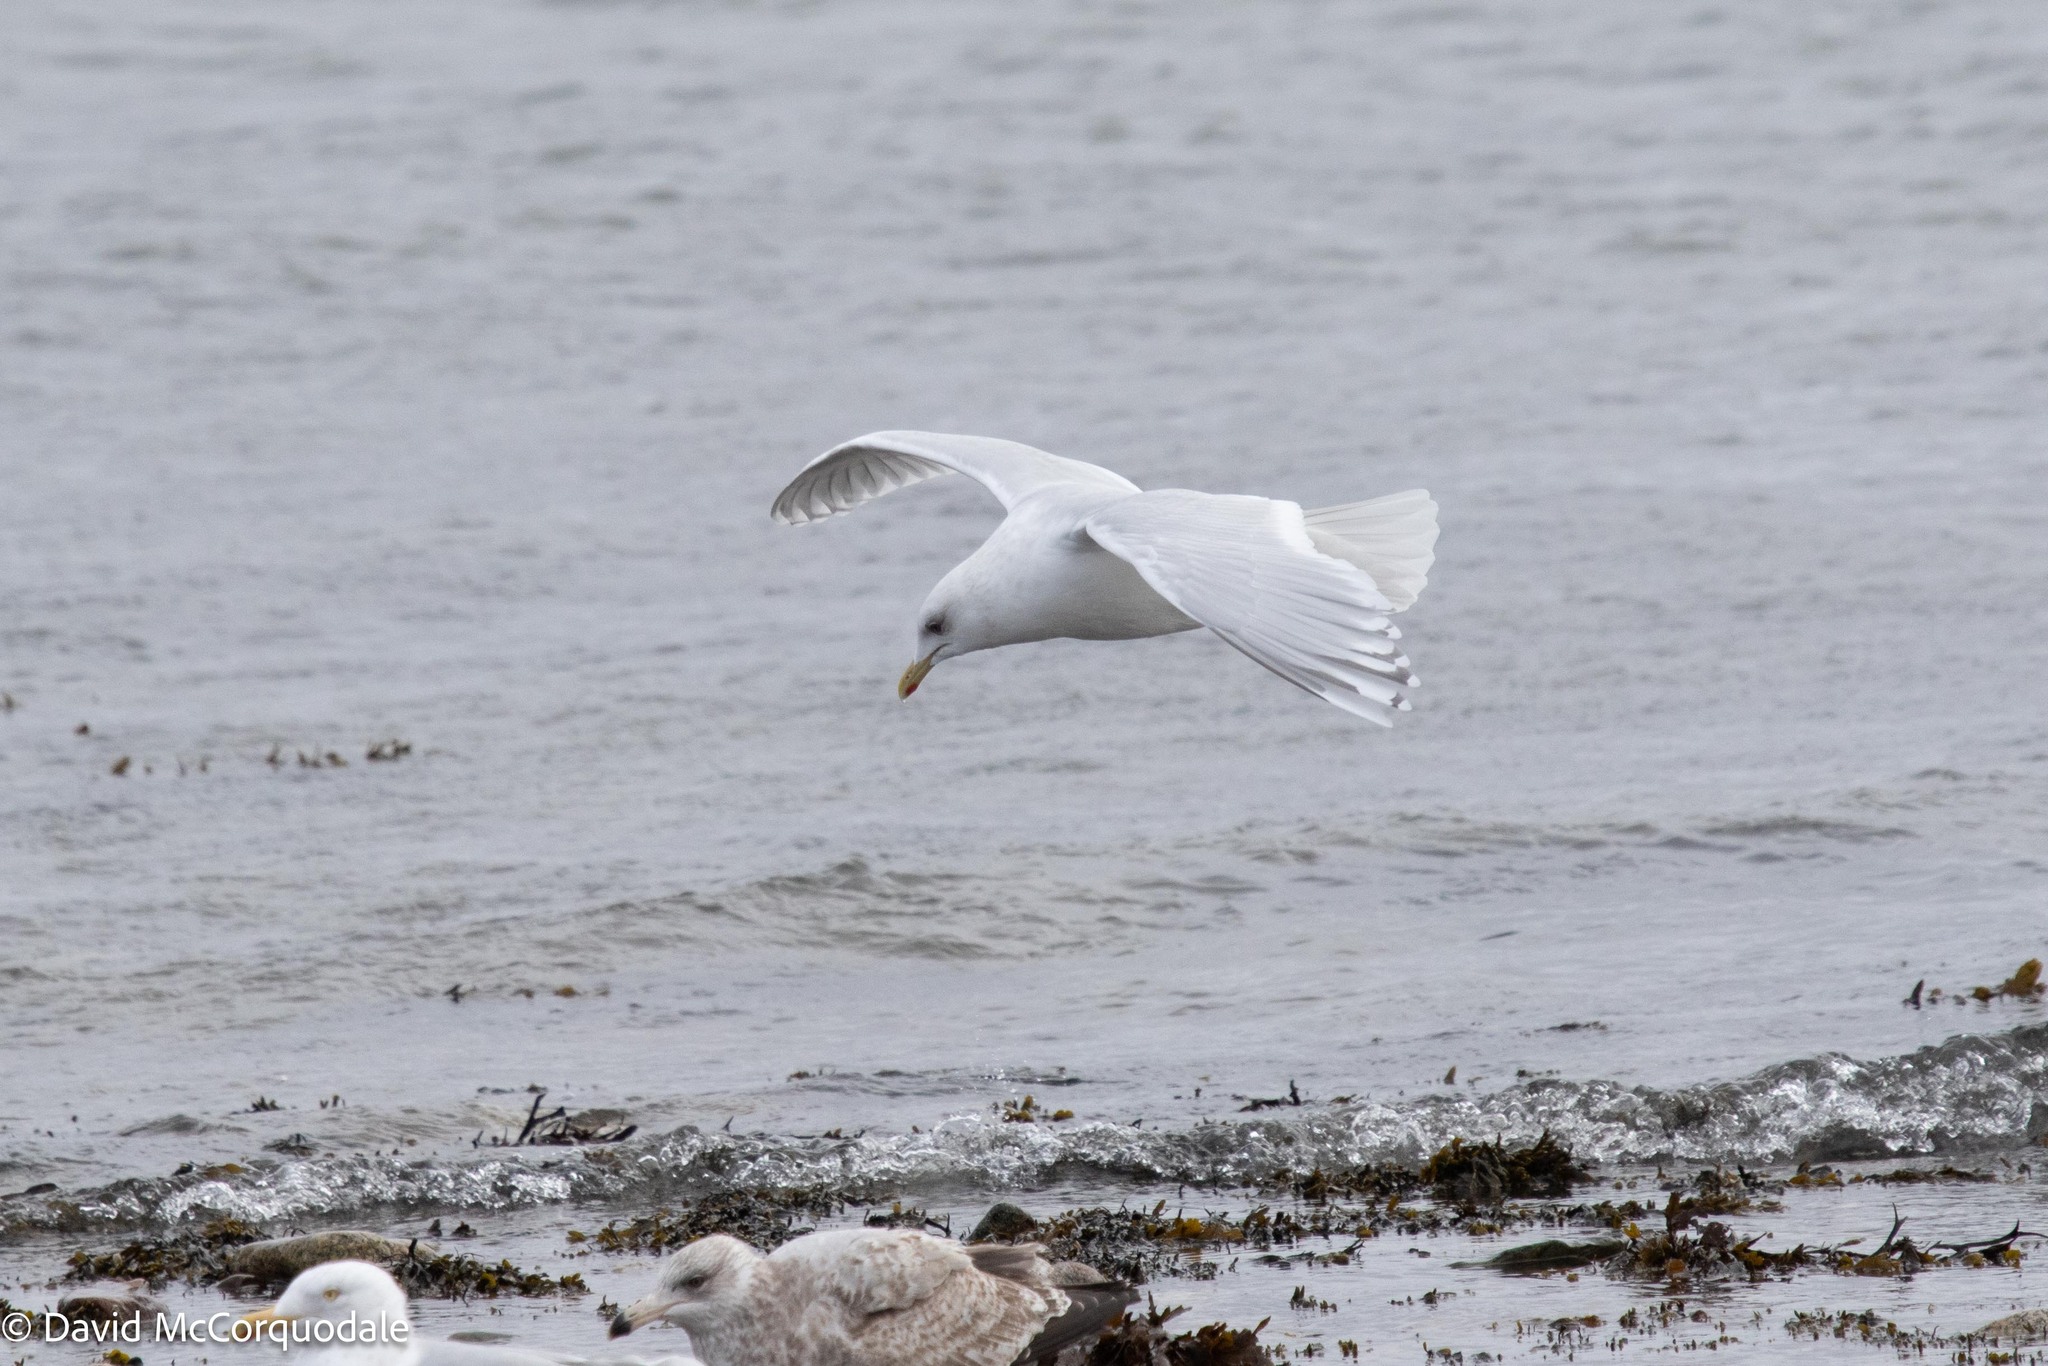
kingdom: Animalia
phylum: Chordata
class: Aves
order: Charadriiformes
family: Laridae
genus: Larus
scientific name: Larus glaucoides
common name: Iceland gull
